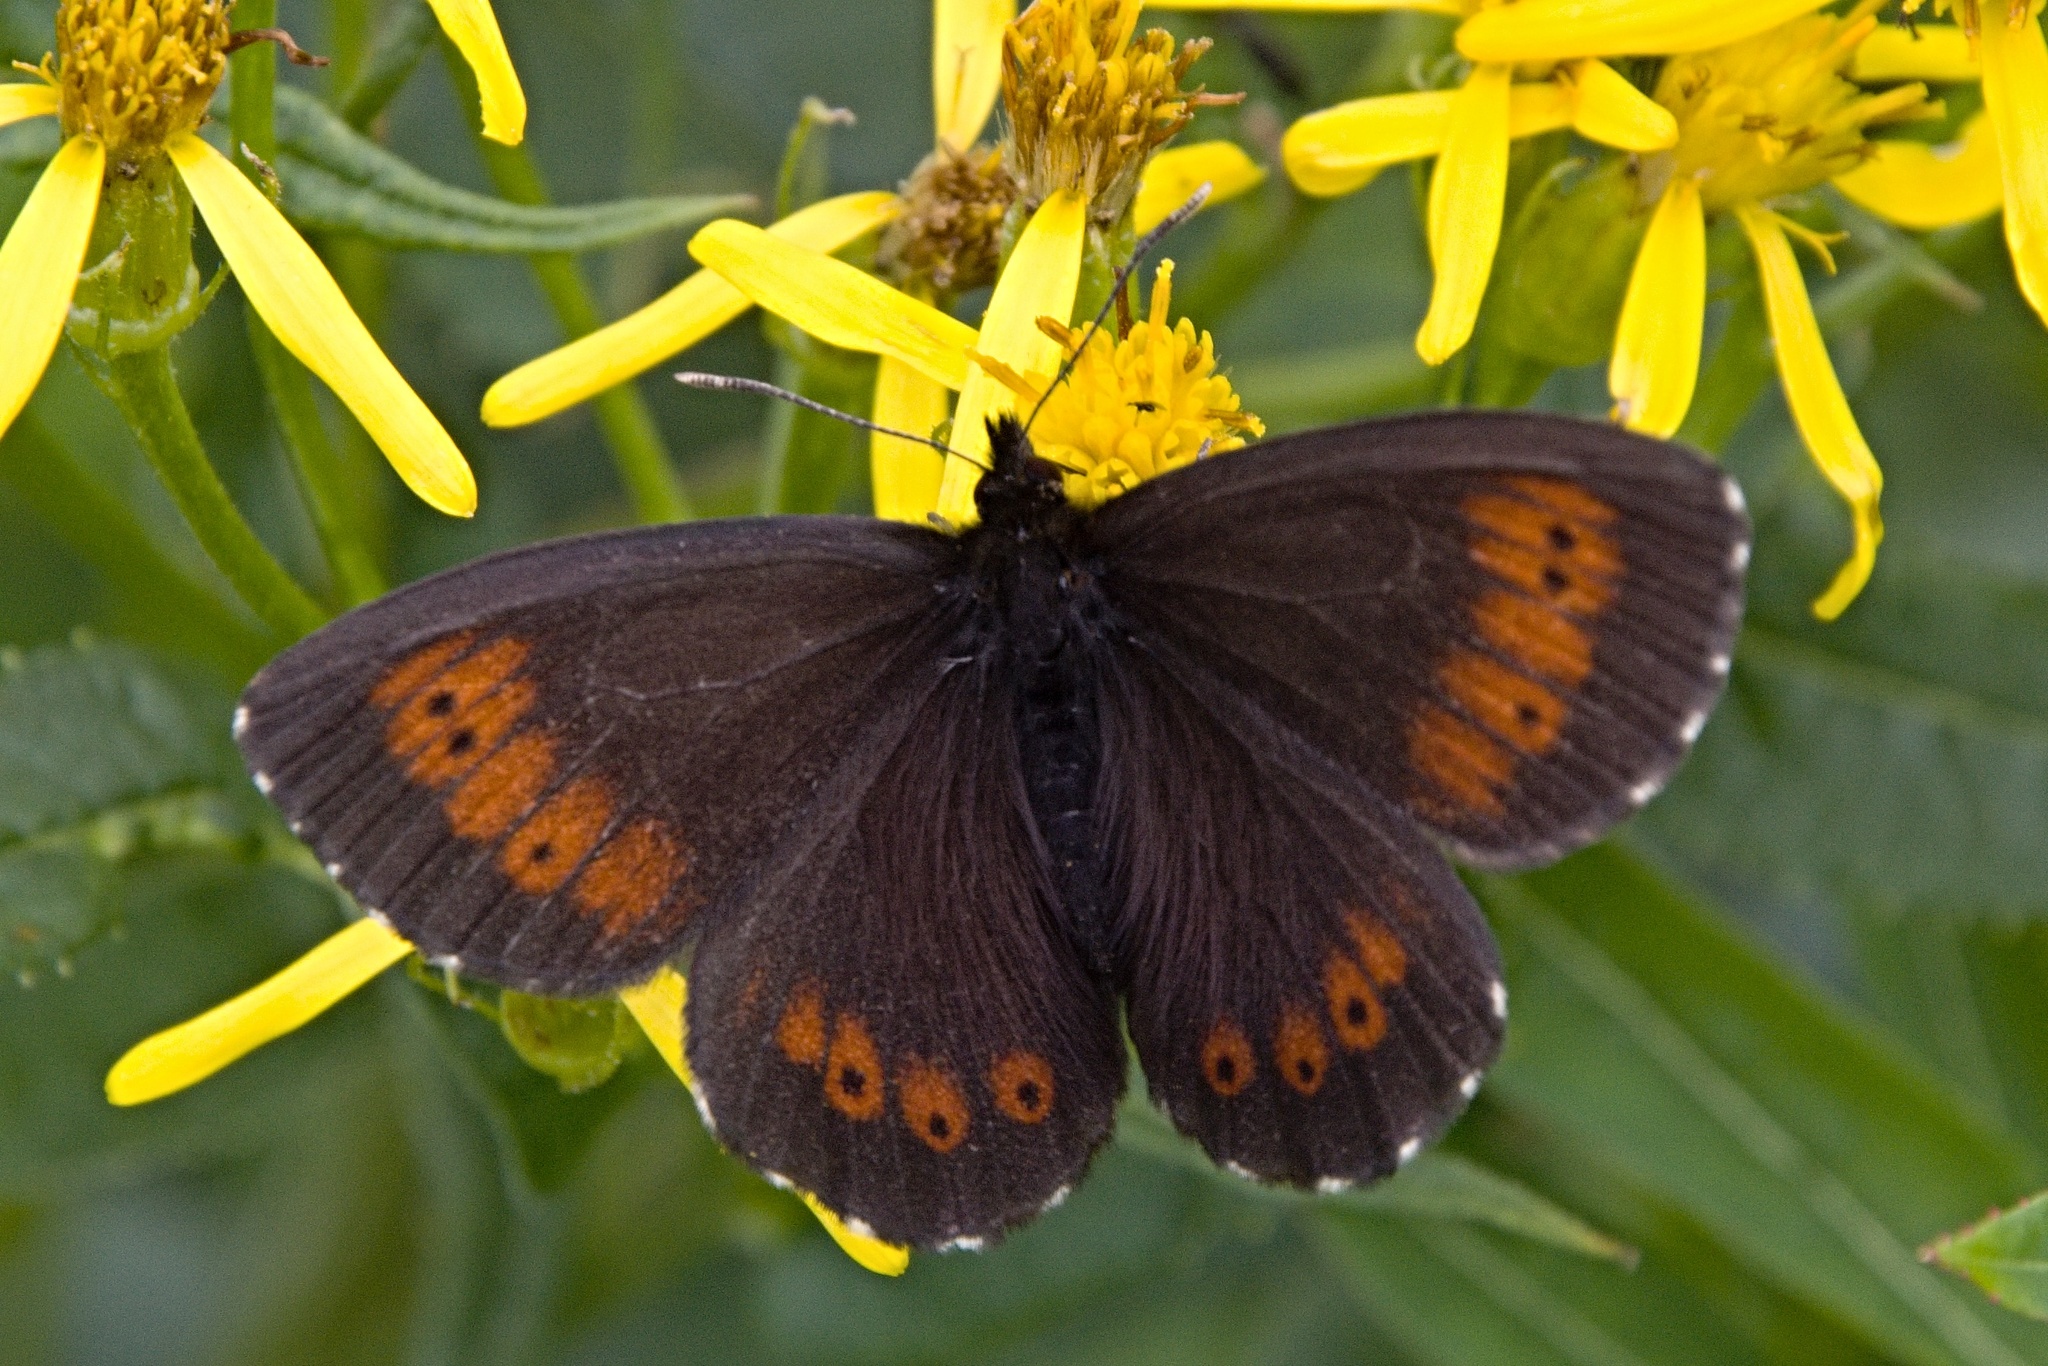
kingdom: Animalia
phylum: Arthropoda
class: Insecta
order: Lepidoptera
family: Nymphalidae
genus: Erebia
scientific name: Erebia euryale
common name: Large ringlet
